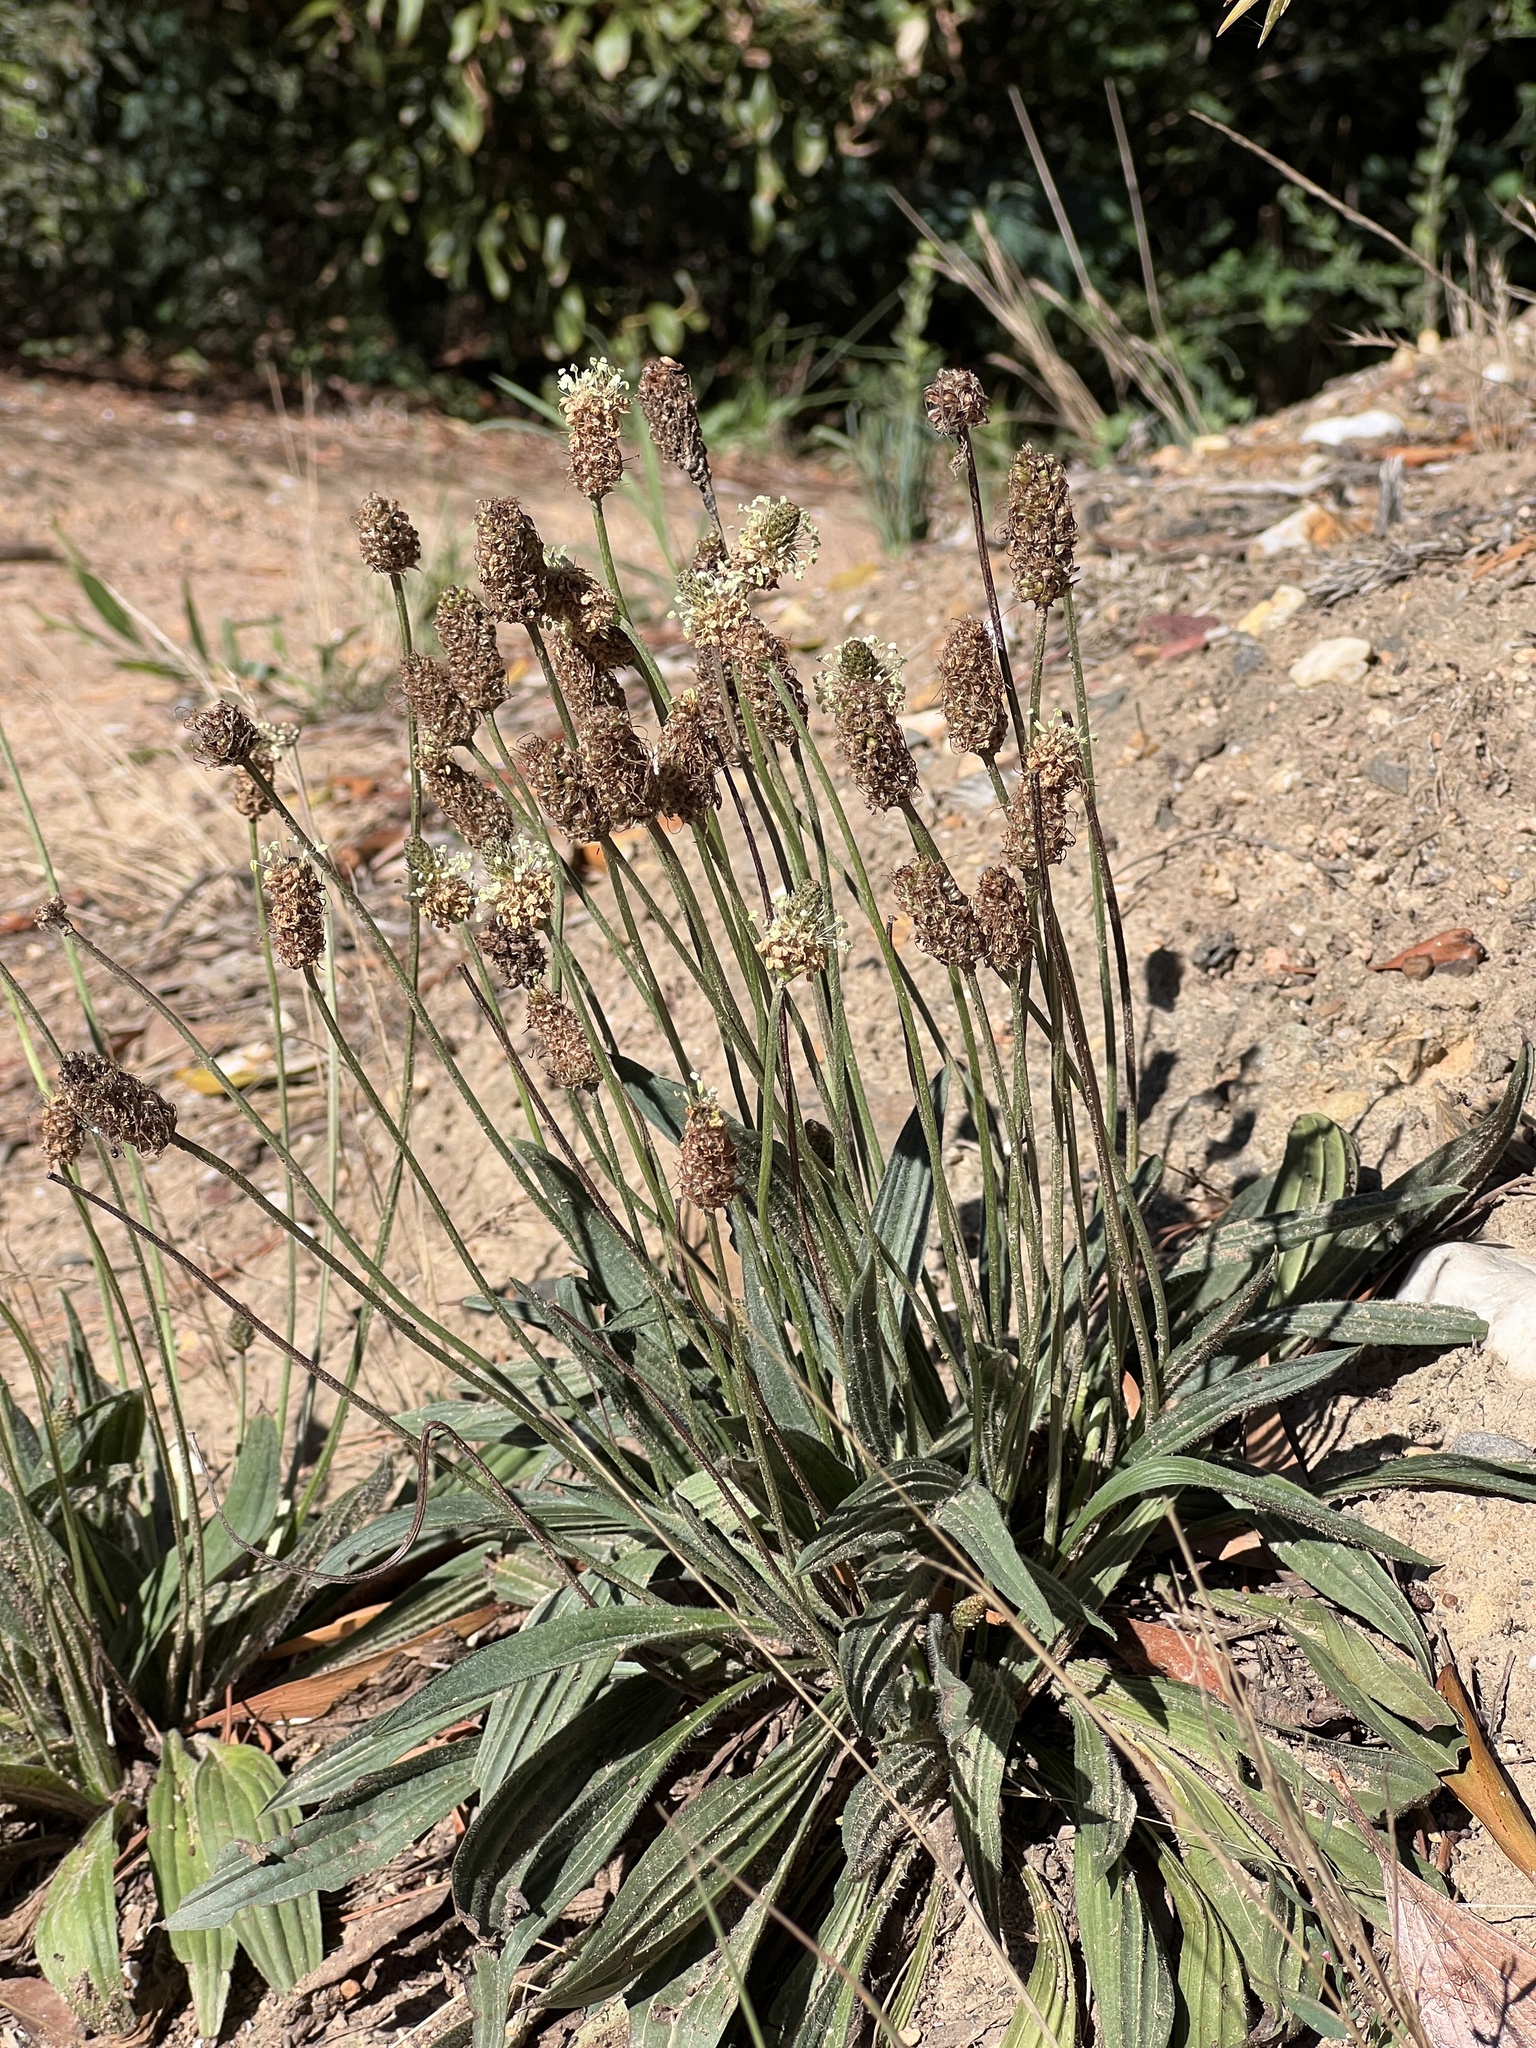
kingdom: Plantae
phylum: Tracheophyta
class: Magnoliopsida
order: Lamiales
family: Plantaginaceae
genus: Plantago
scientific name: Plantago lanceolata
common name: Ribwort plantain
